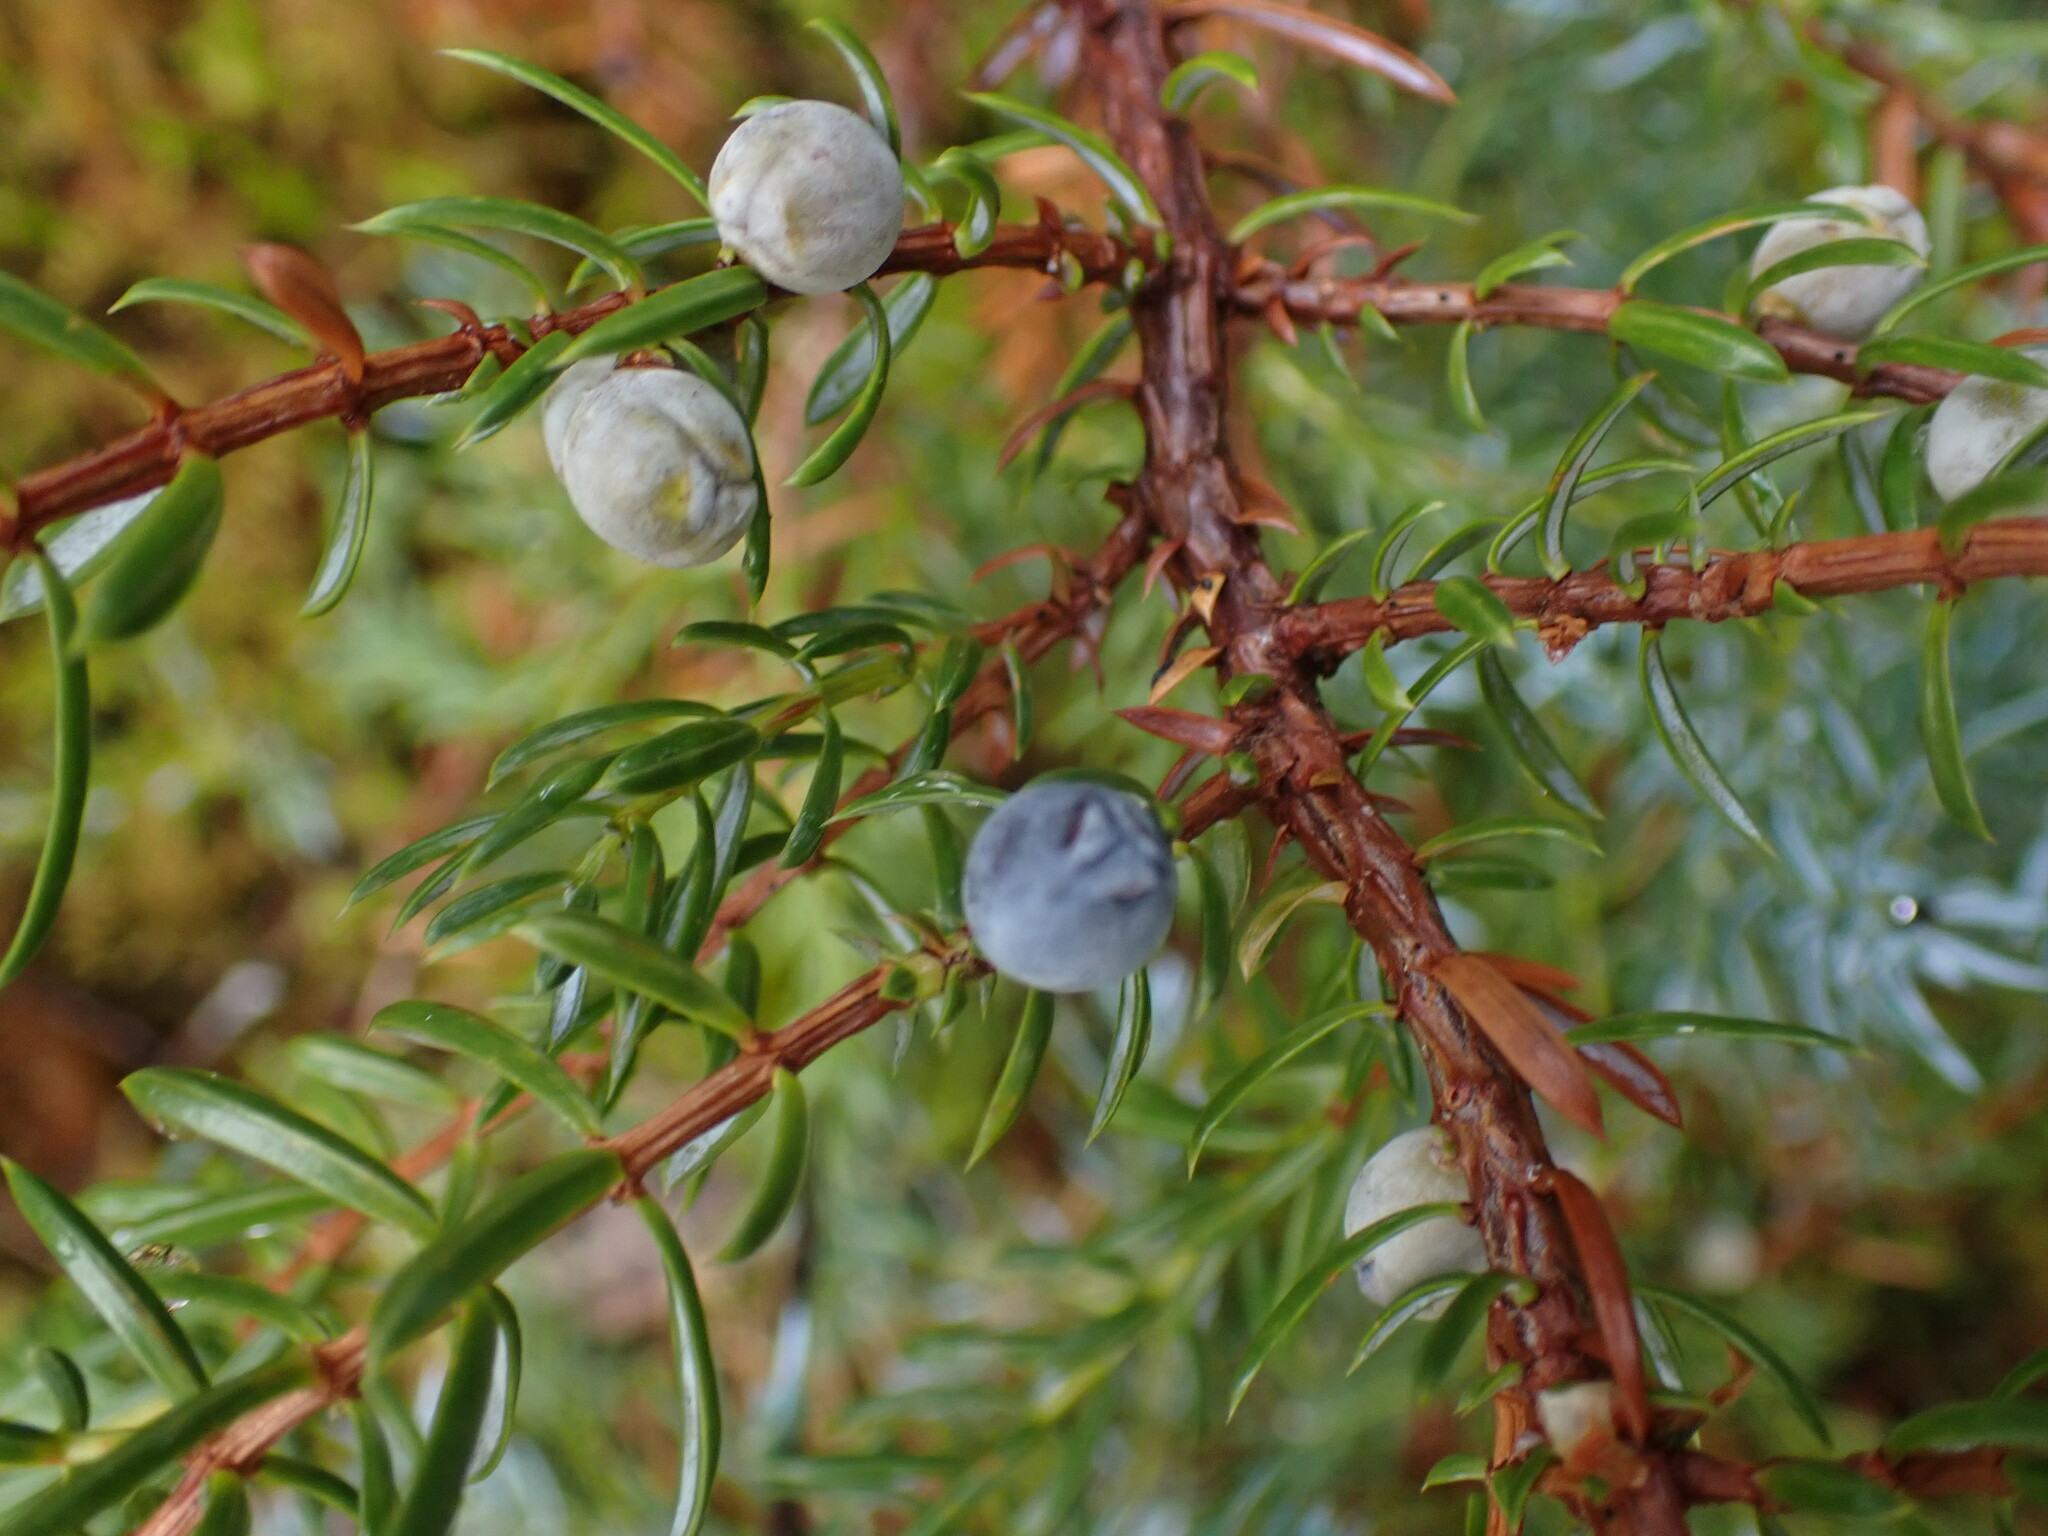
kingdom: Plantae
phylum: Tracheophyta
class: Pinopsida
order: Pinales
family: Cupressaceae
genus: Juniperus
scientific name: Juniperus communis
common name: Common juniper
